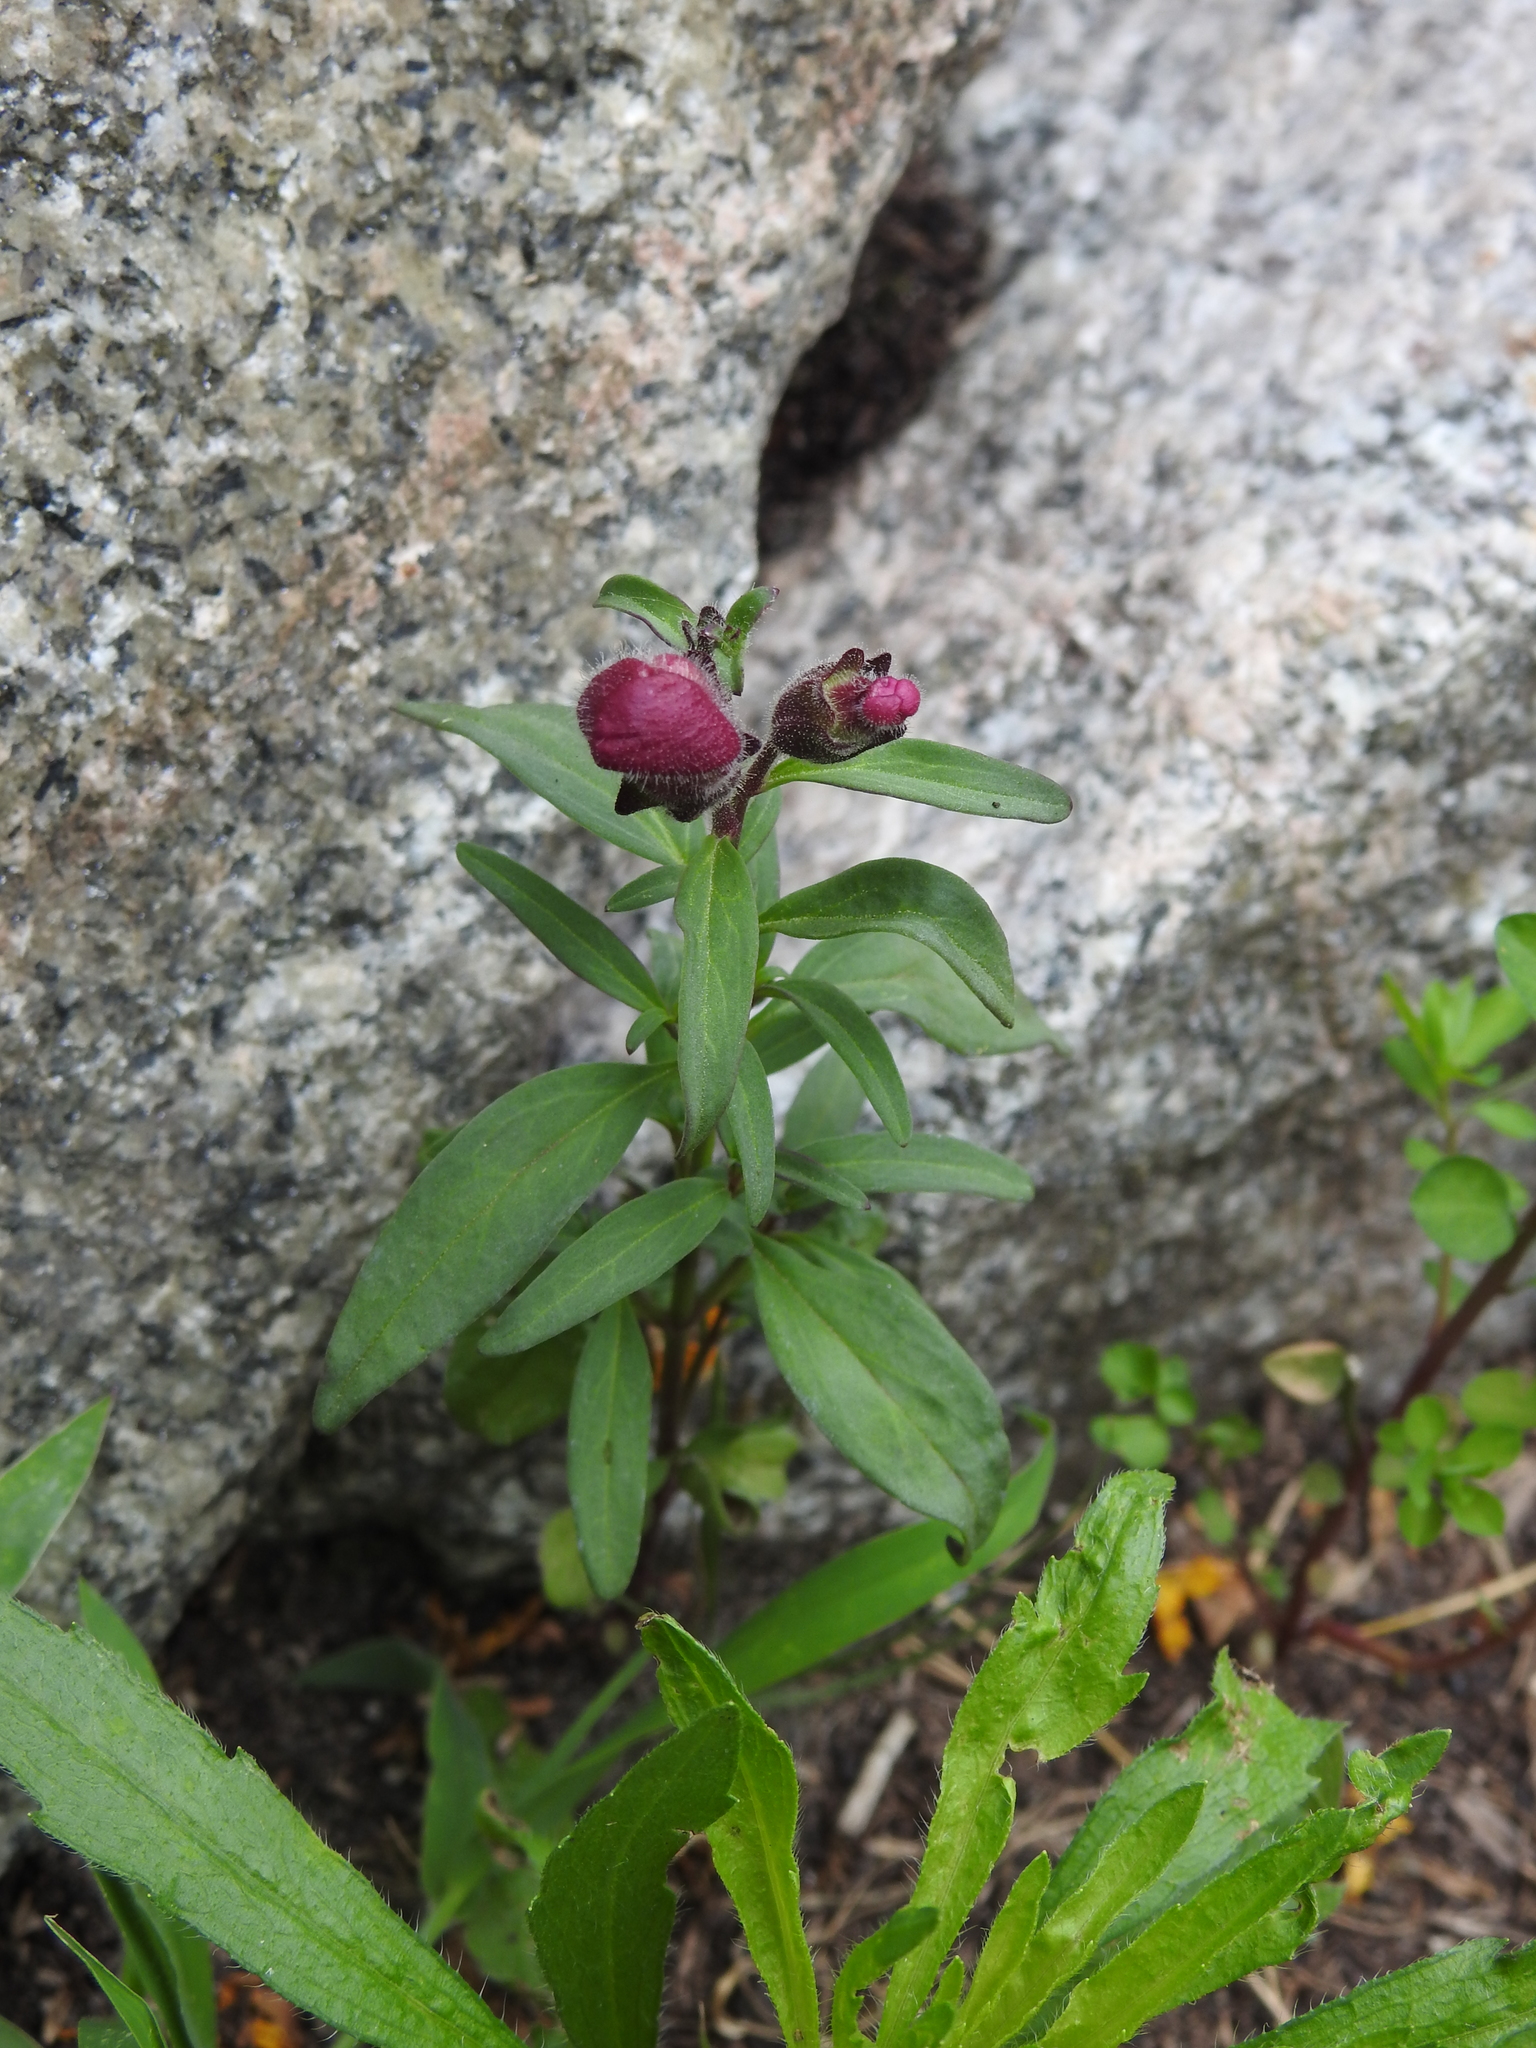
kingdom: Plantae
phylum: Tracheophyta
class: Magnoliopsida
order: Lamiales
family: Plantaginaceae
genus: Antirrhinum
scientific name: Antirrhinum majus
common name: Snapdragon
